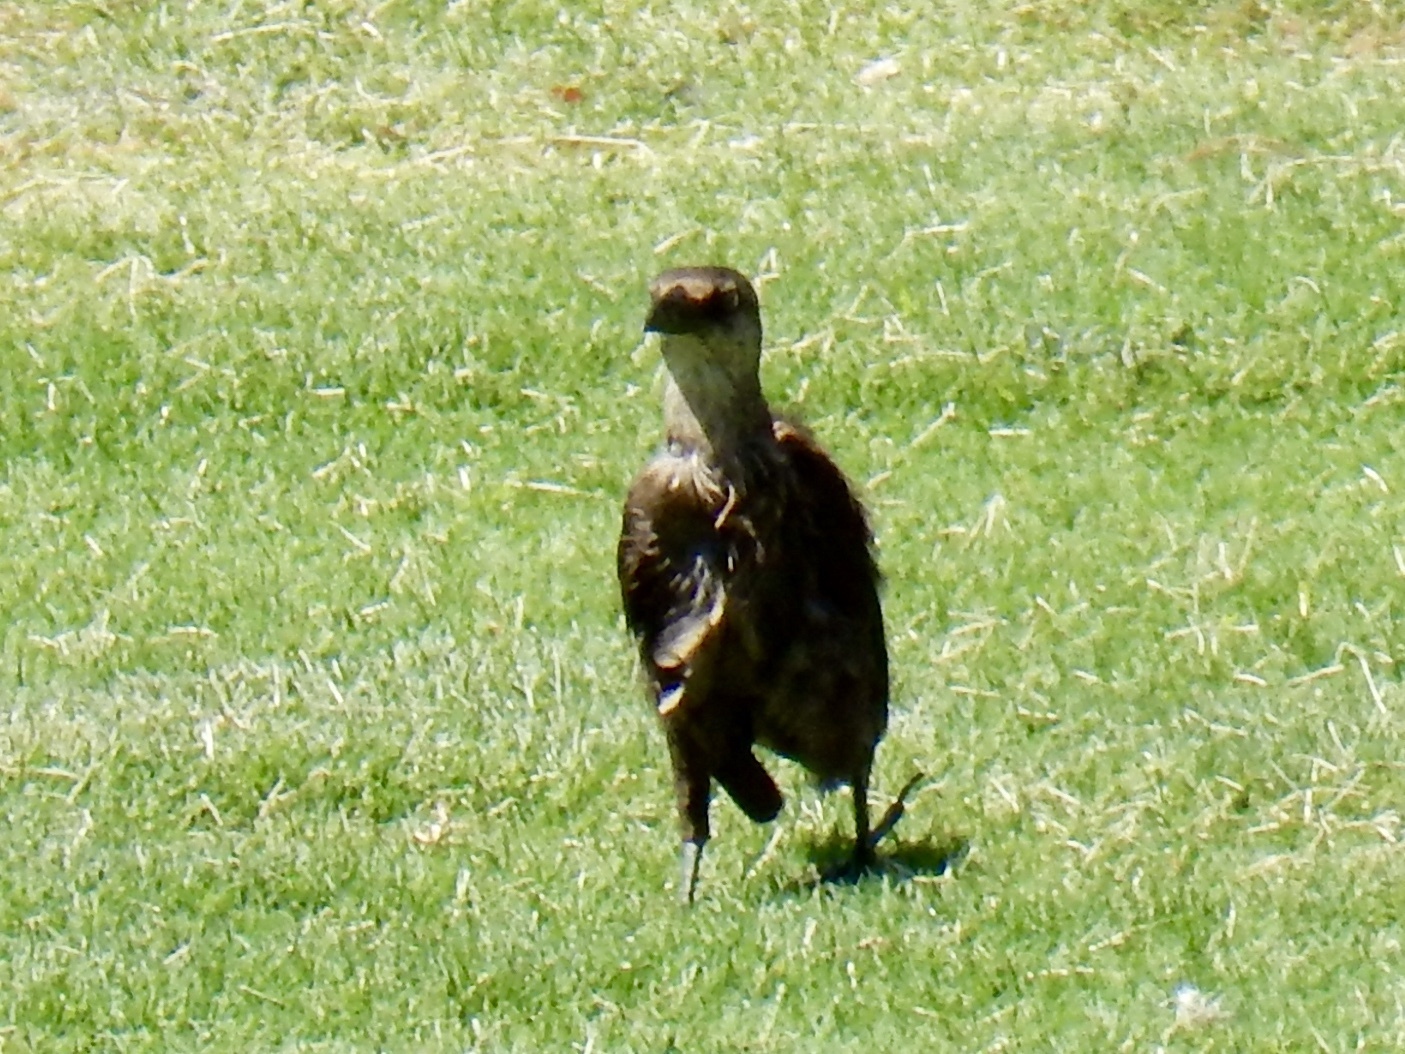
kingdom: Animalia
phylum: Chordata
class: Aves
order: Passeriformes
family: Icteridae
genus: Quiscalus
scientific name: Quiscalus mexicanus
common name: Great-tailed grackle
